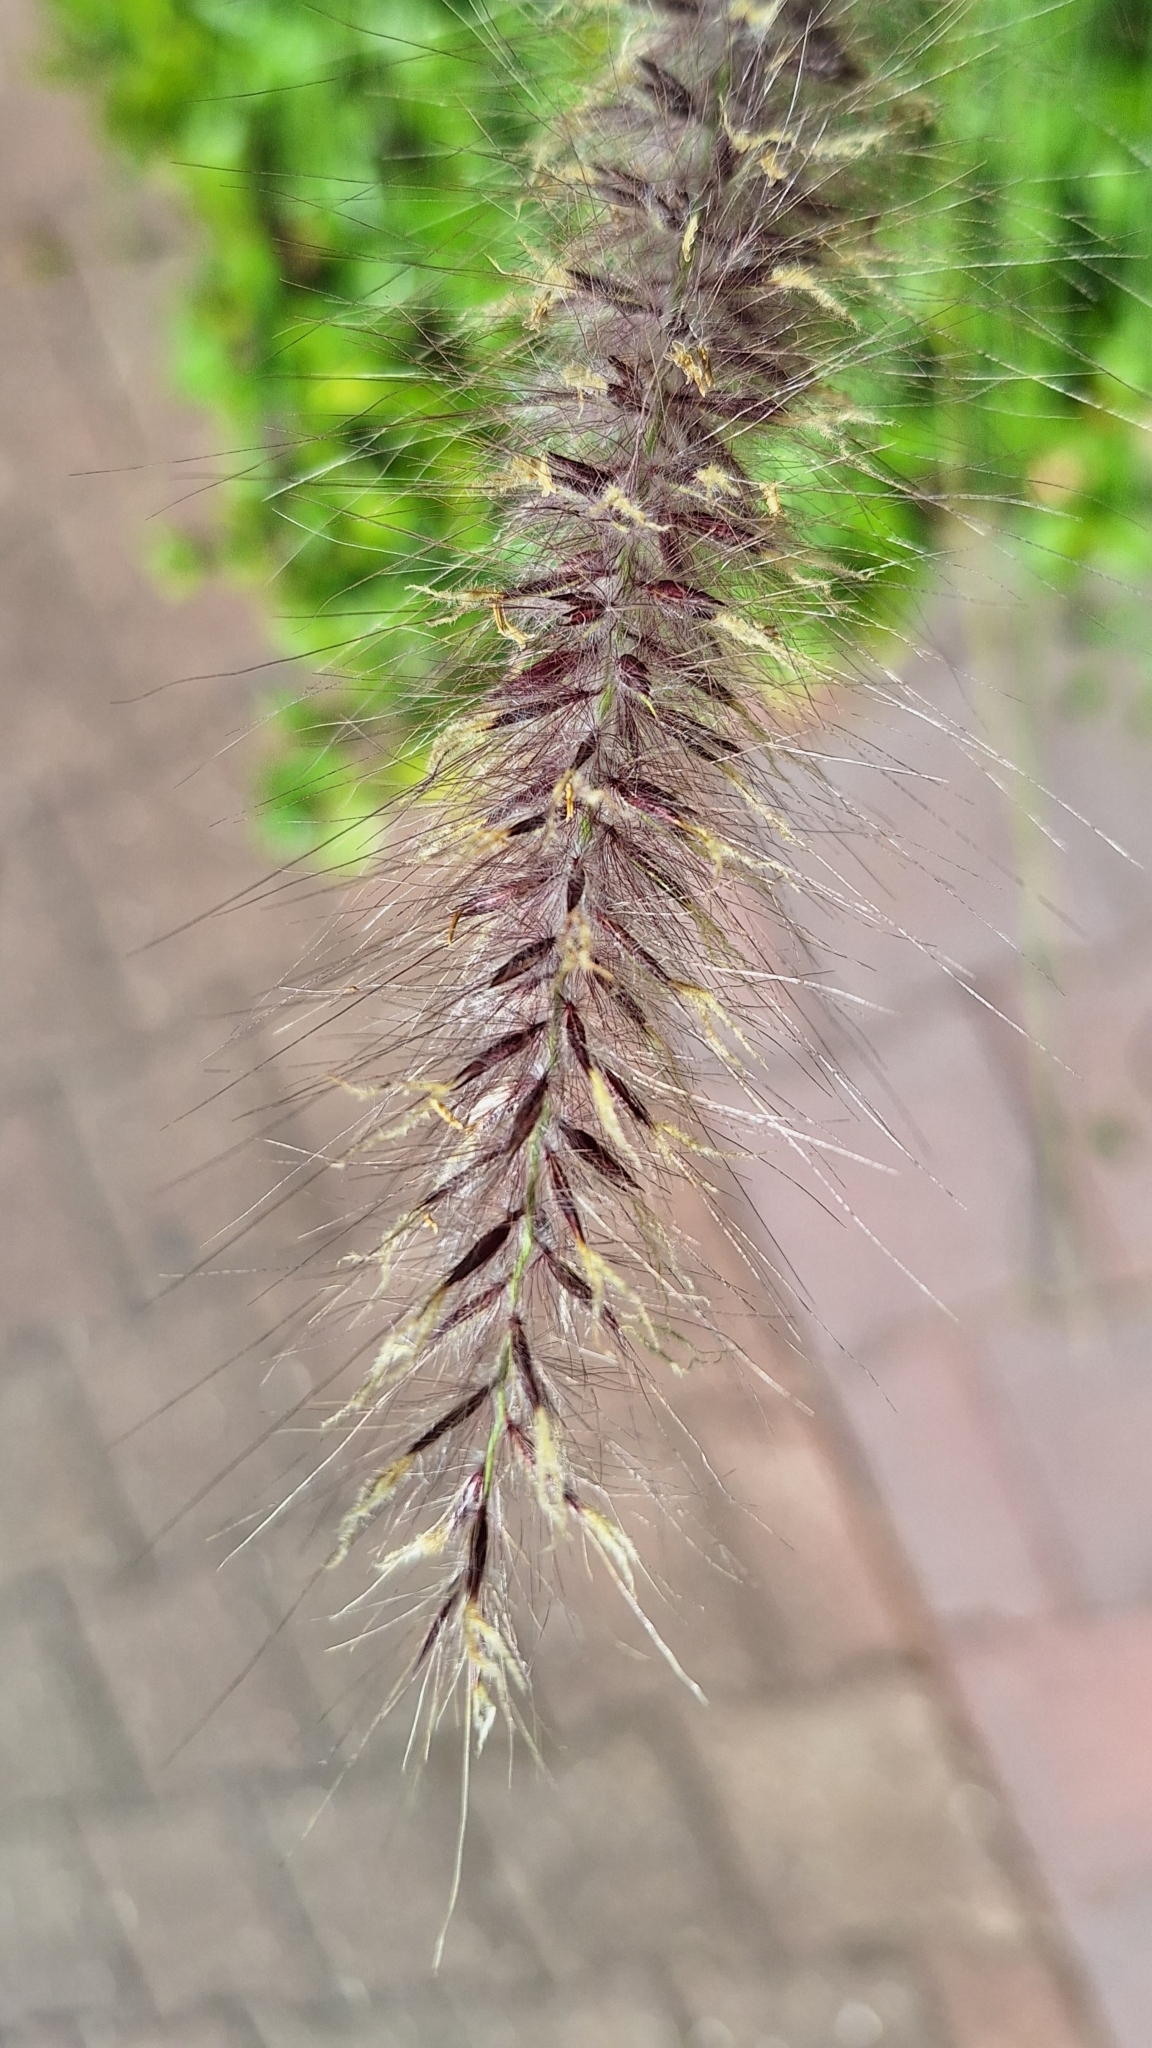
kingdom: Plantae
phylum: Tracheophyta
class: Liliopsida
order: Poales
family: Poaceae
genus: Cenchrus
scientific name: Cenchrus setaceus
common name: Crimson fountaingrass
